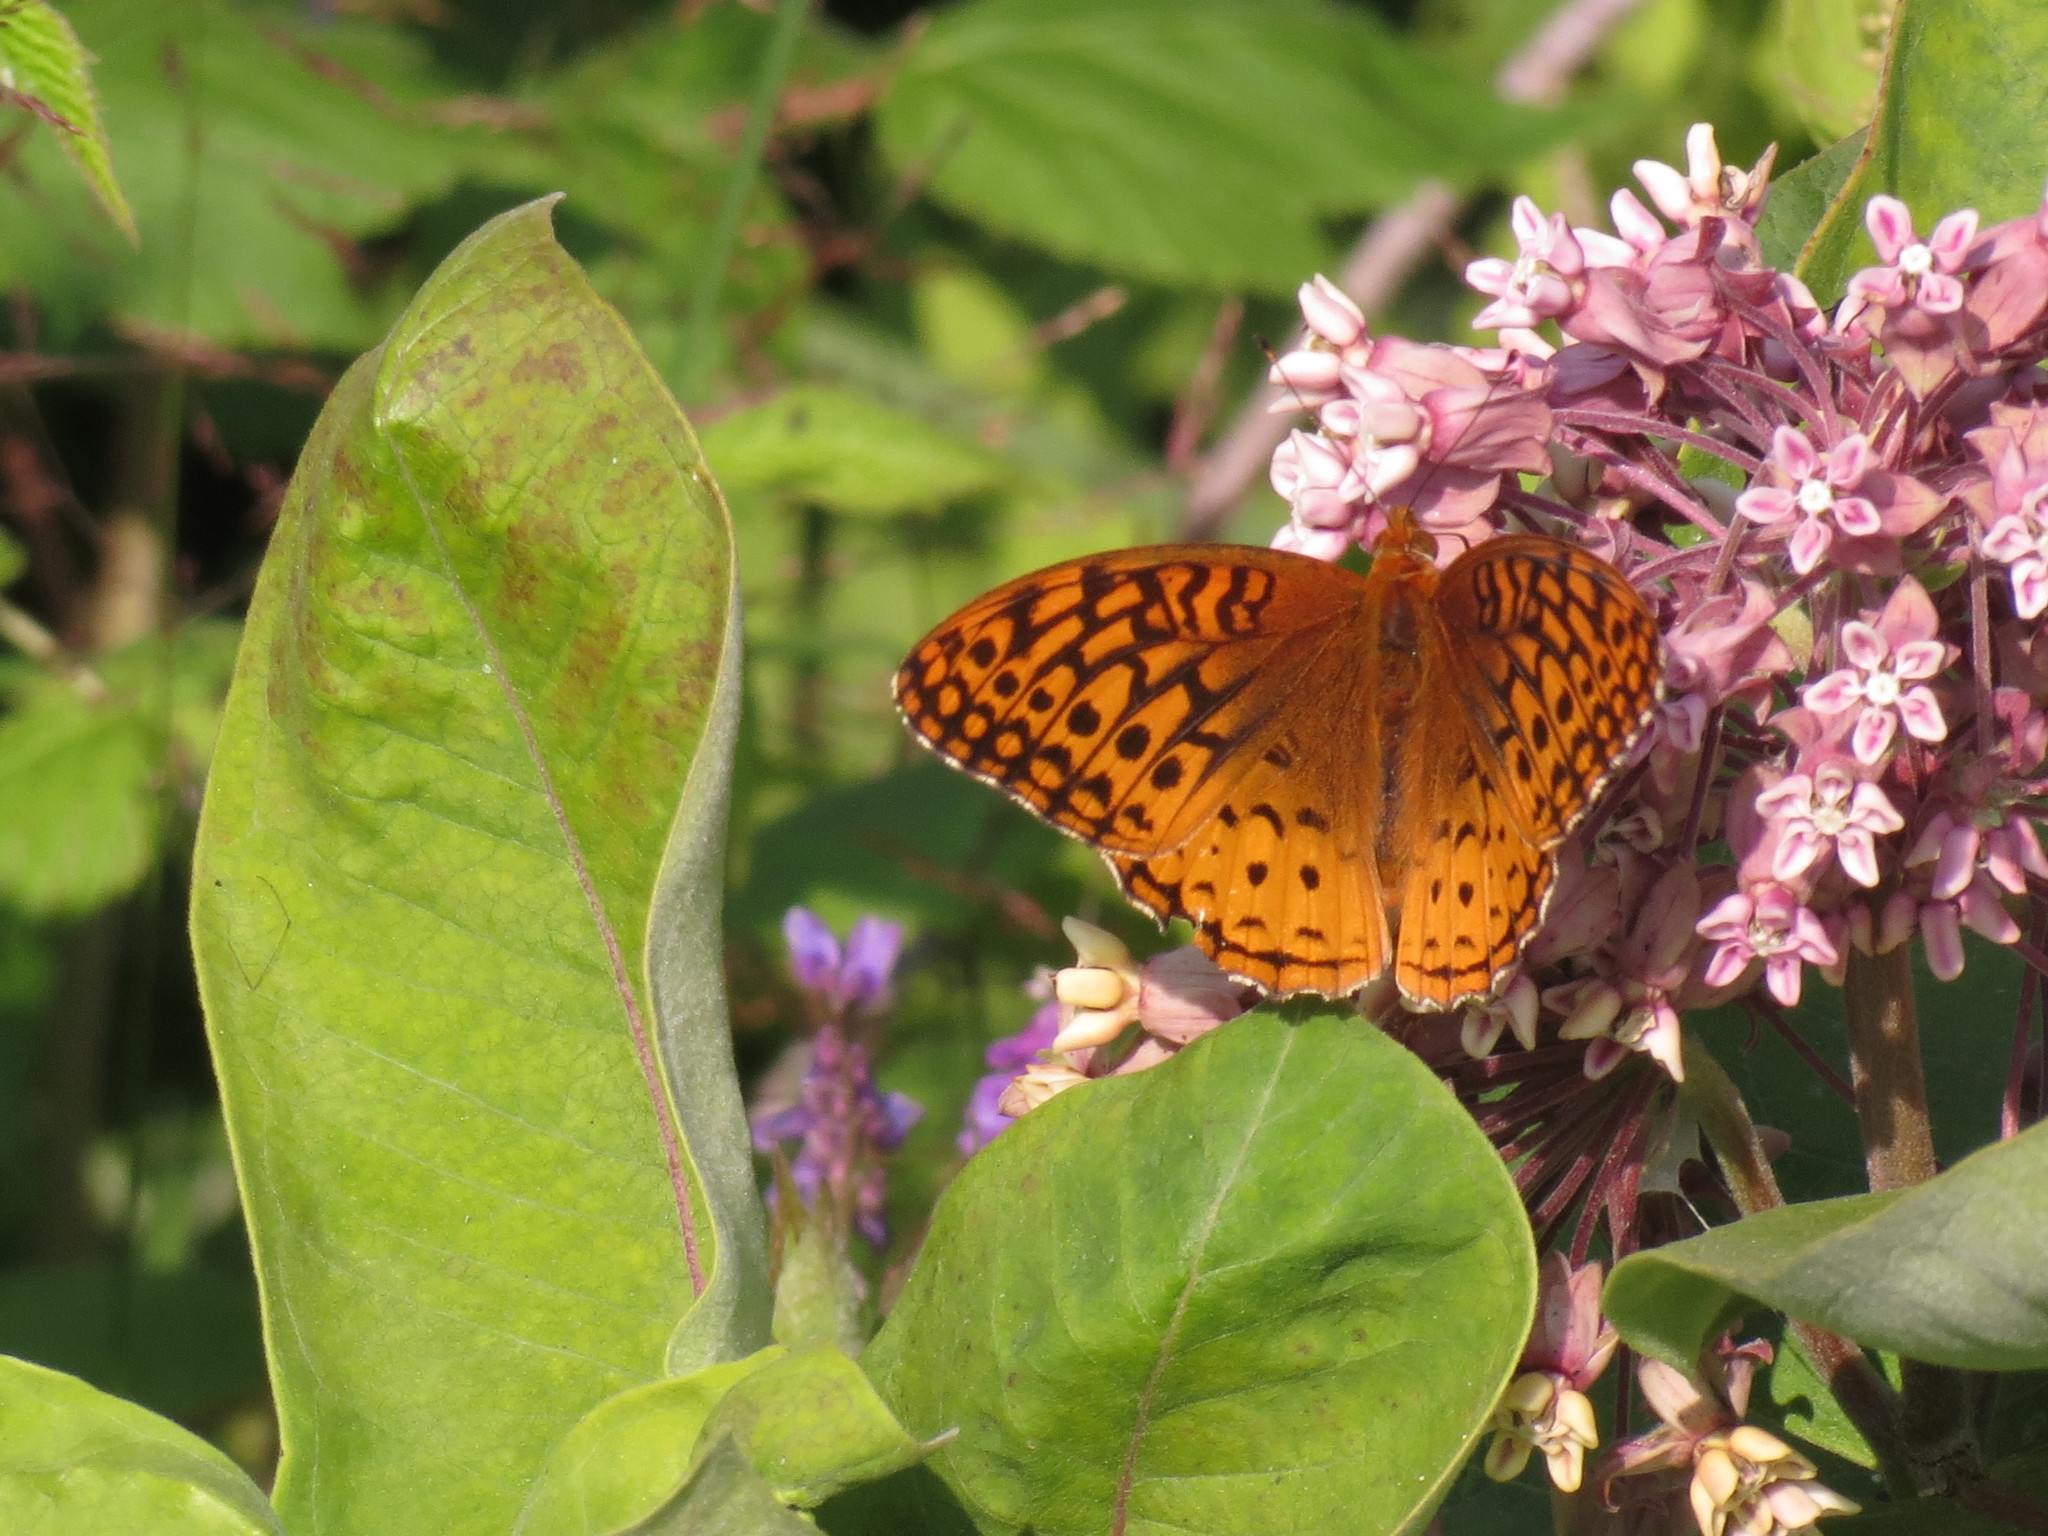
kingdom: Animalia
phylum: Arthropoda
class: Insecta
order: Lepidoptera
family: Nymphalidae
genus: Speyeria
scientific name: Speyeria cybele
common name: Great spangled fritillary
